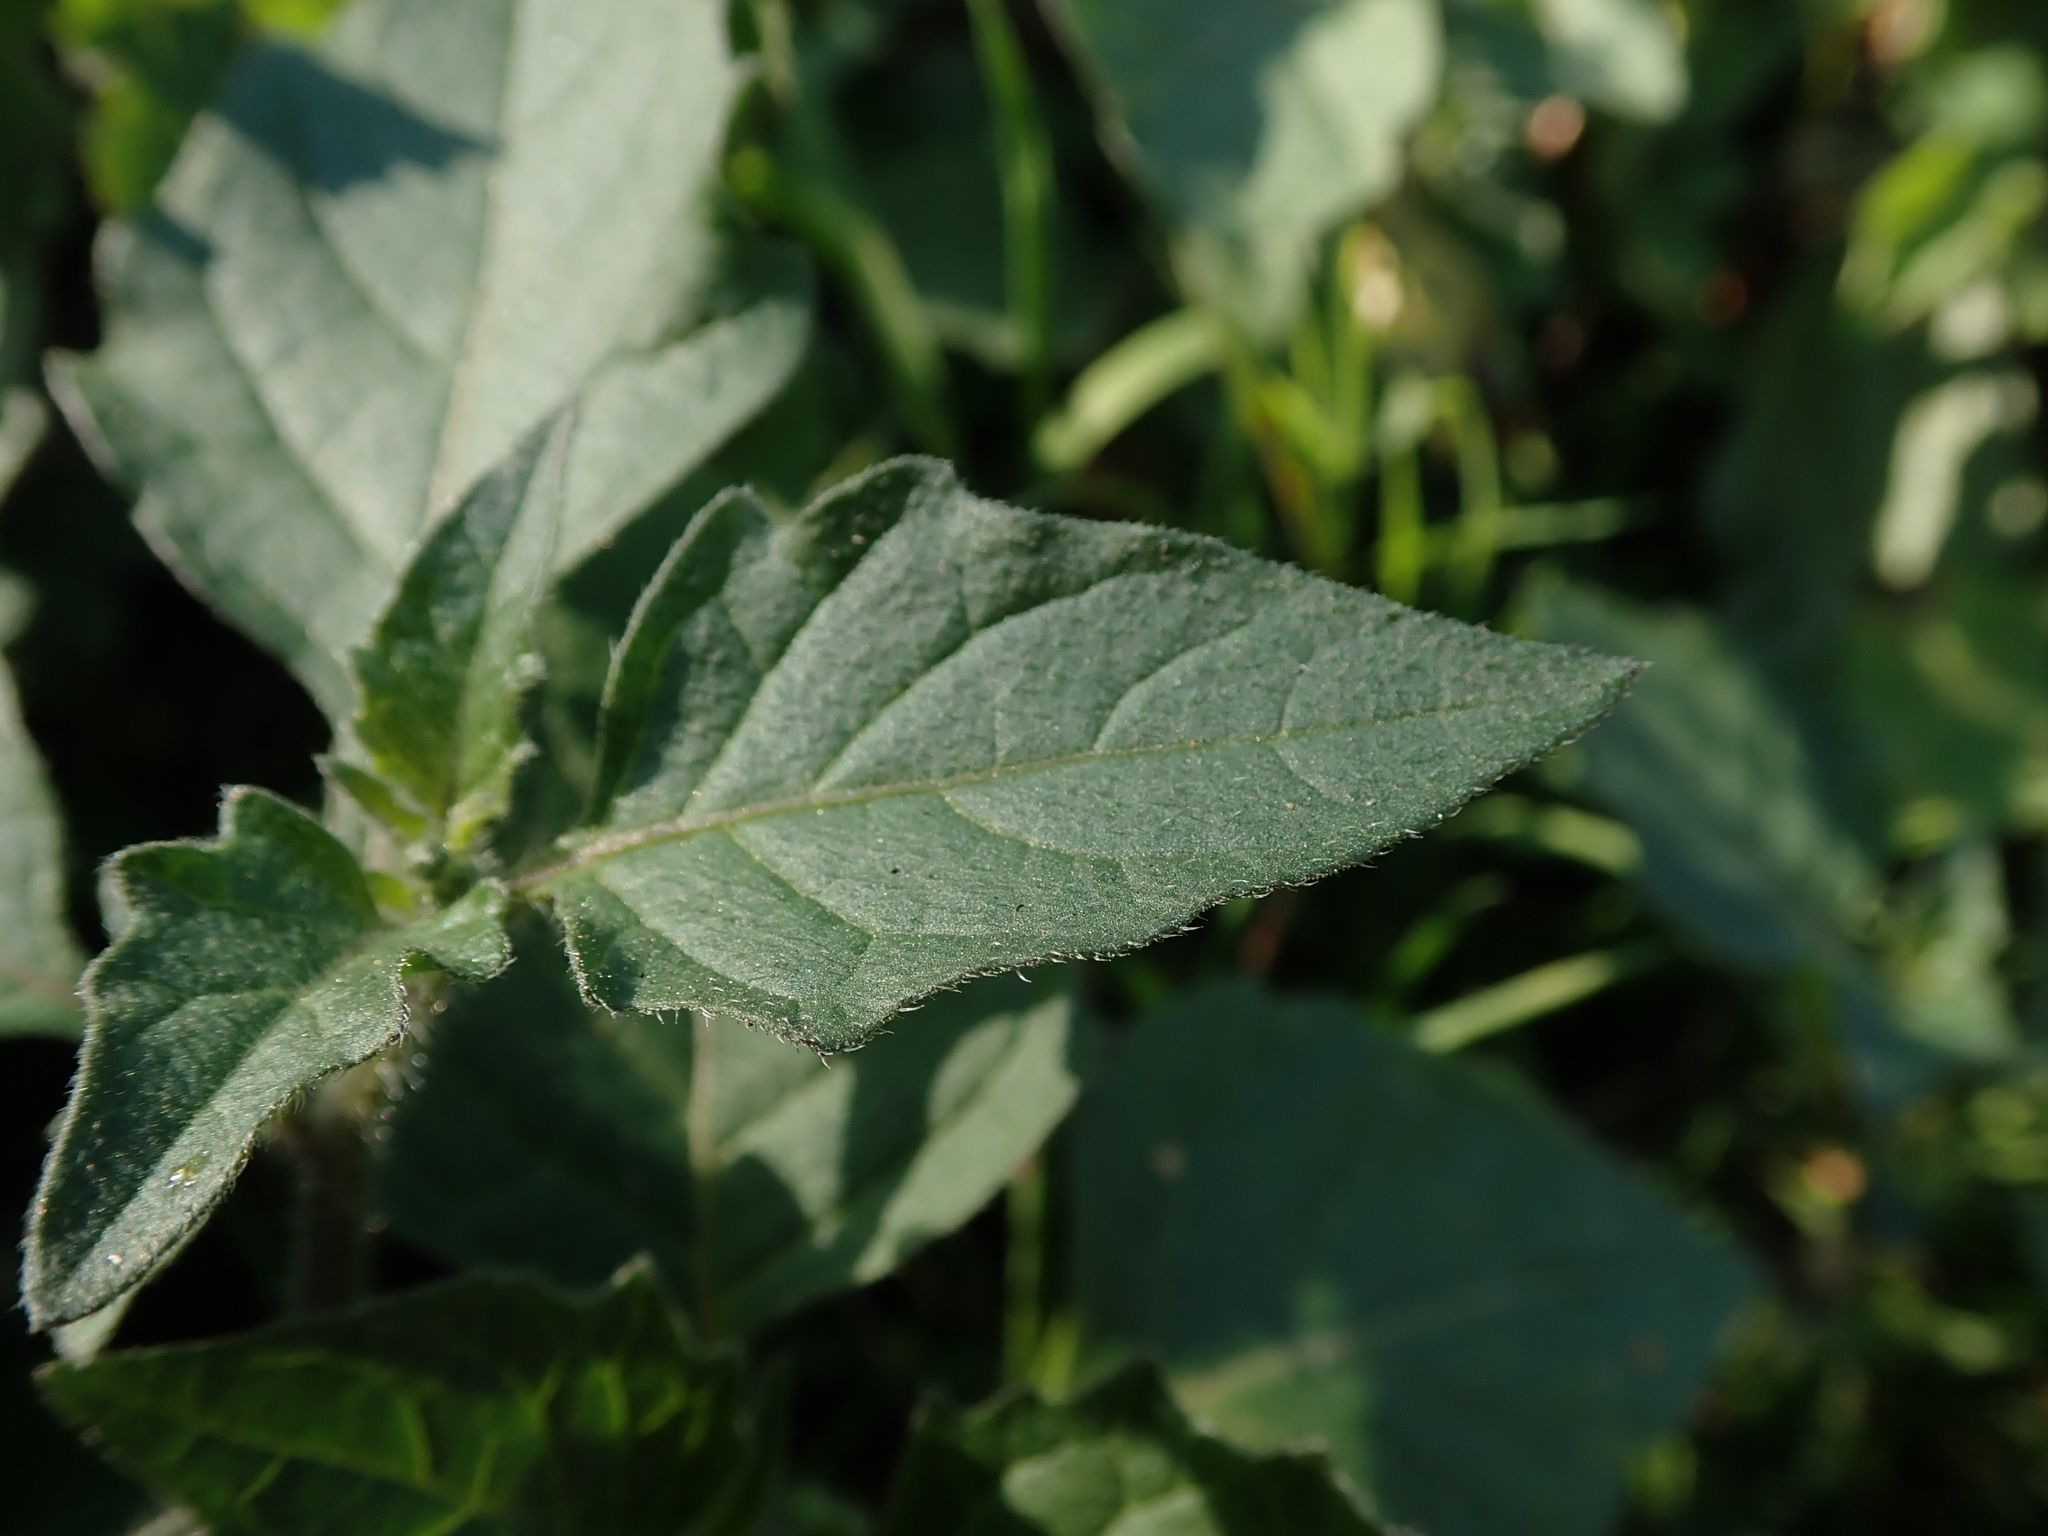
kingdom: Plantae
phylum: Tracheophyta
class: Magnoliopsida
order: Solanales
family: Solanaceae
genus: Solanum
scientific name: Solanum nigrum
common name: Black nightshade
